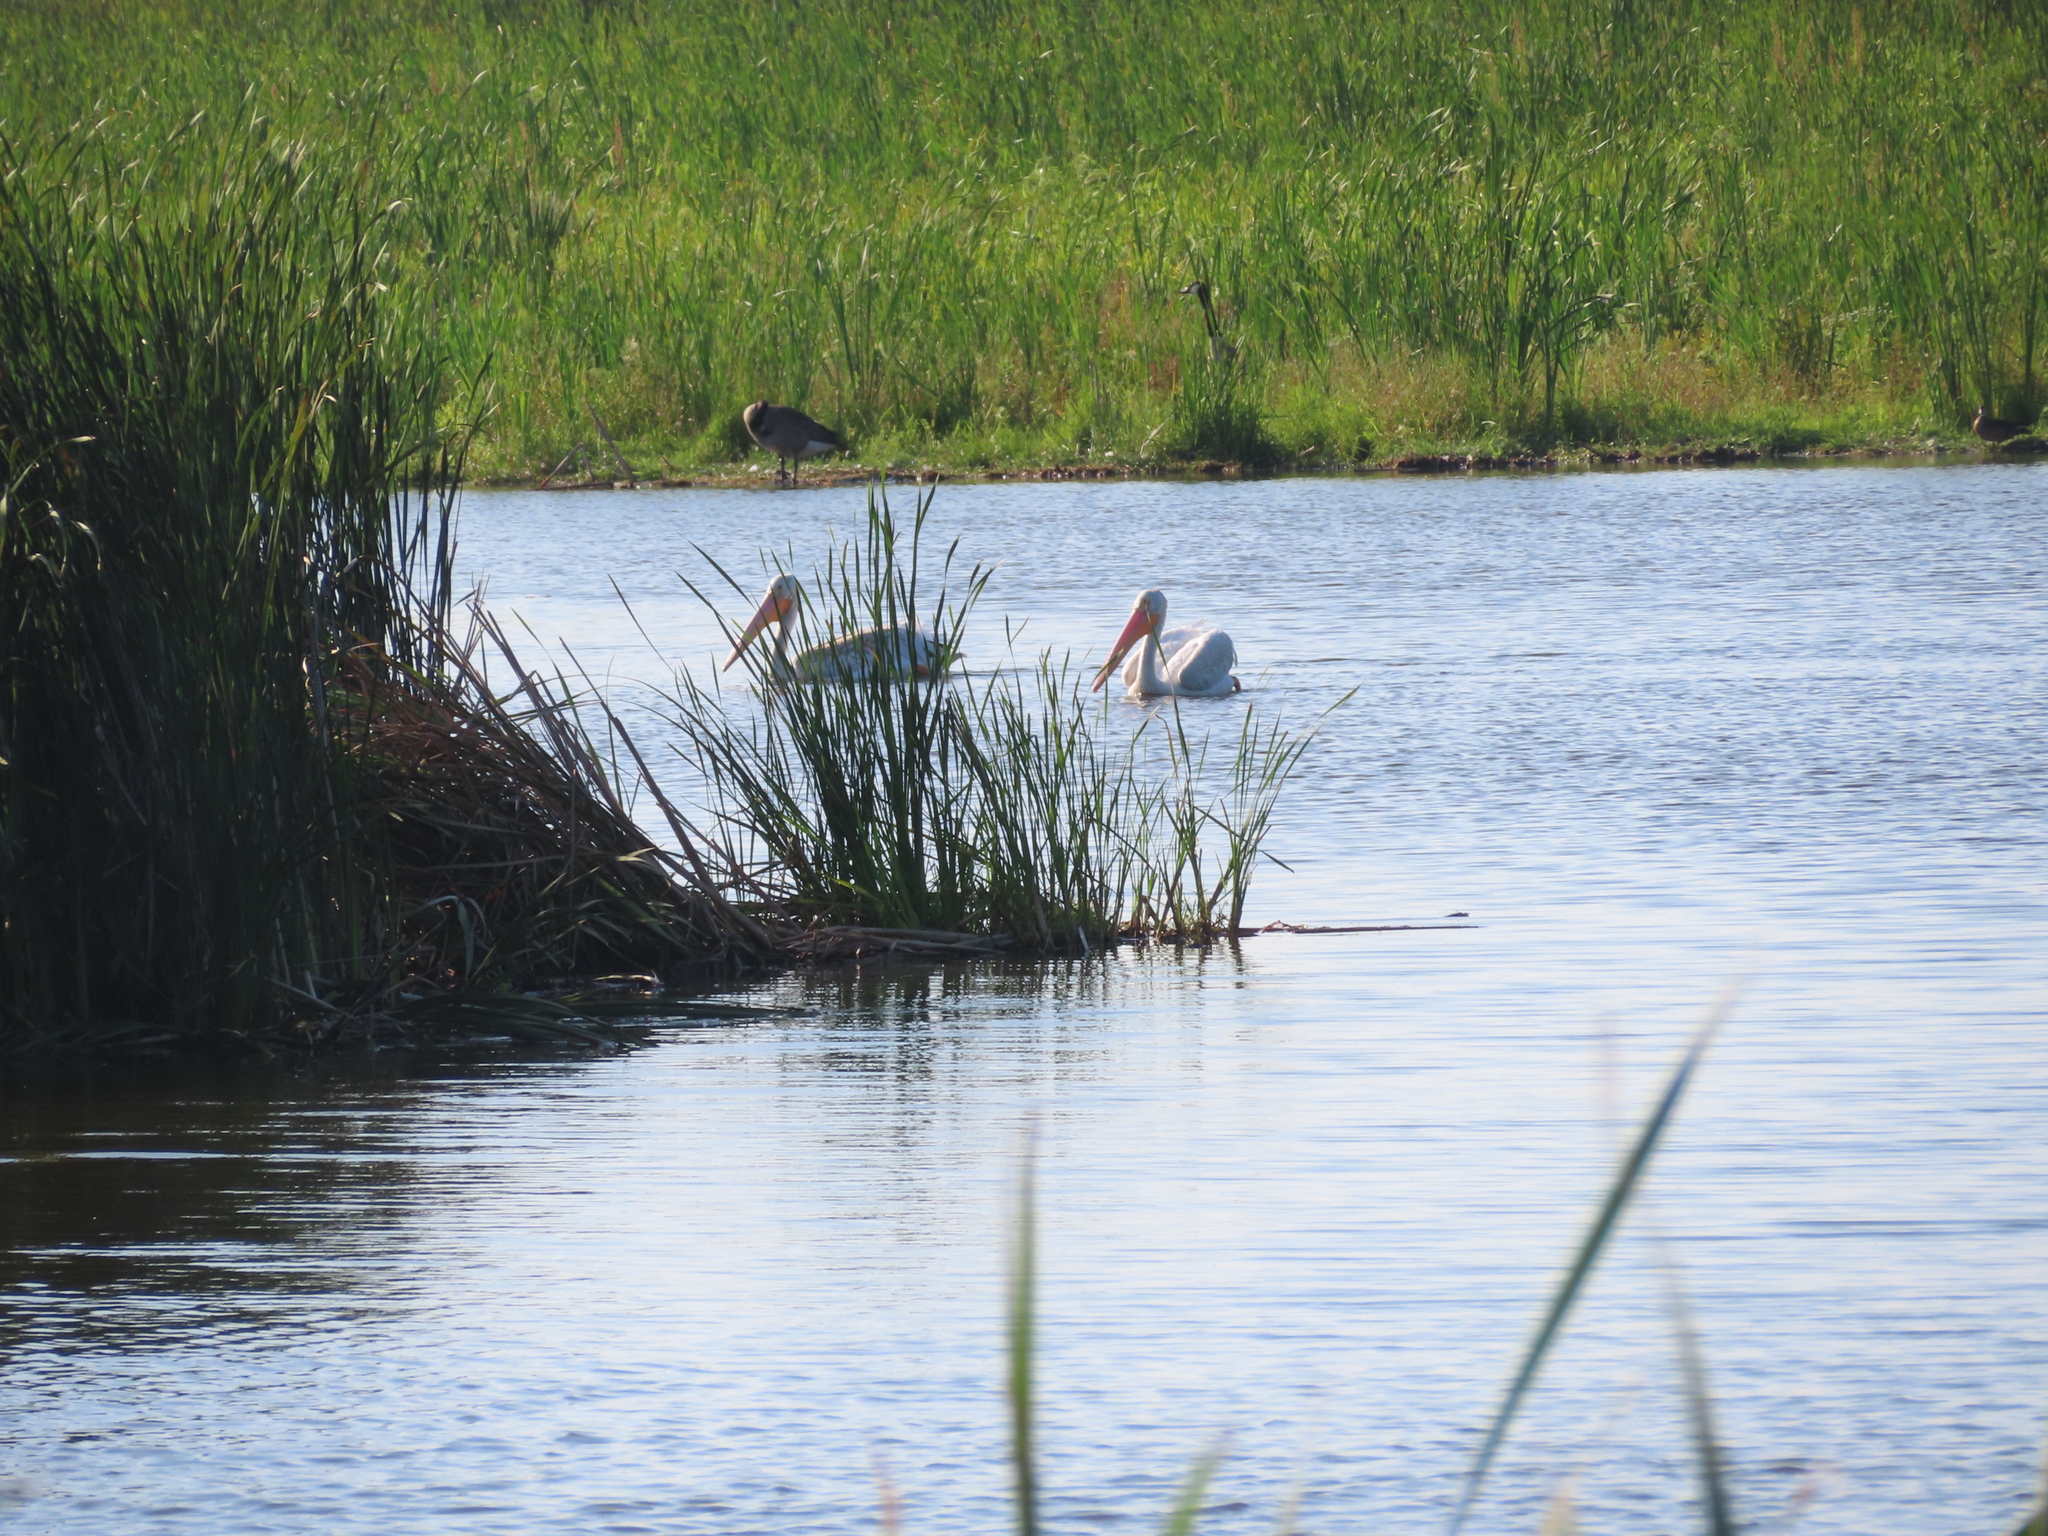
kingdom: Animalia
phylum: Chordata
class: Aves
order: Pelecaniformes
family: Pelecanidae
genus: Pelecanus
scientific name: Pelecanus erythrorhynchos
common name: American white pelican
